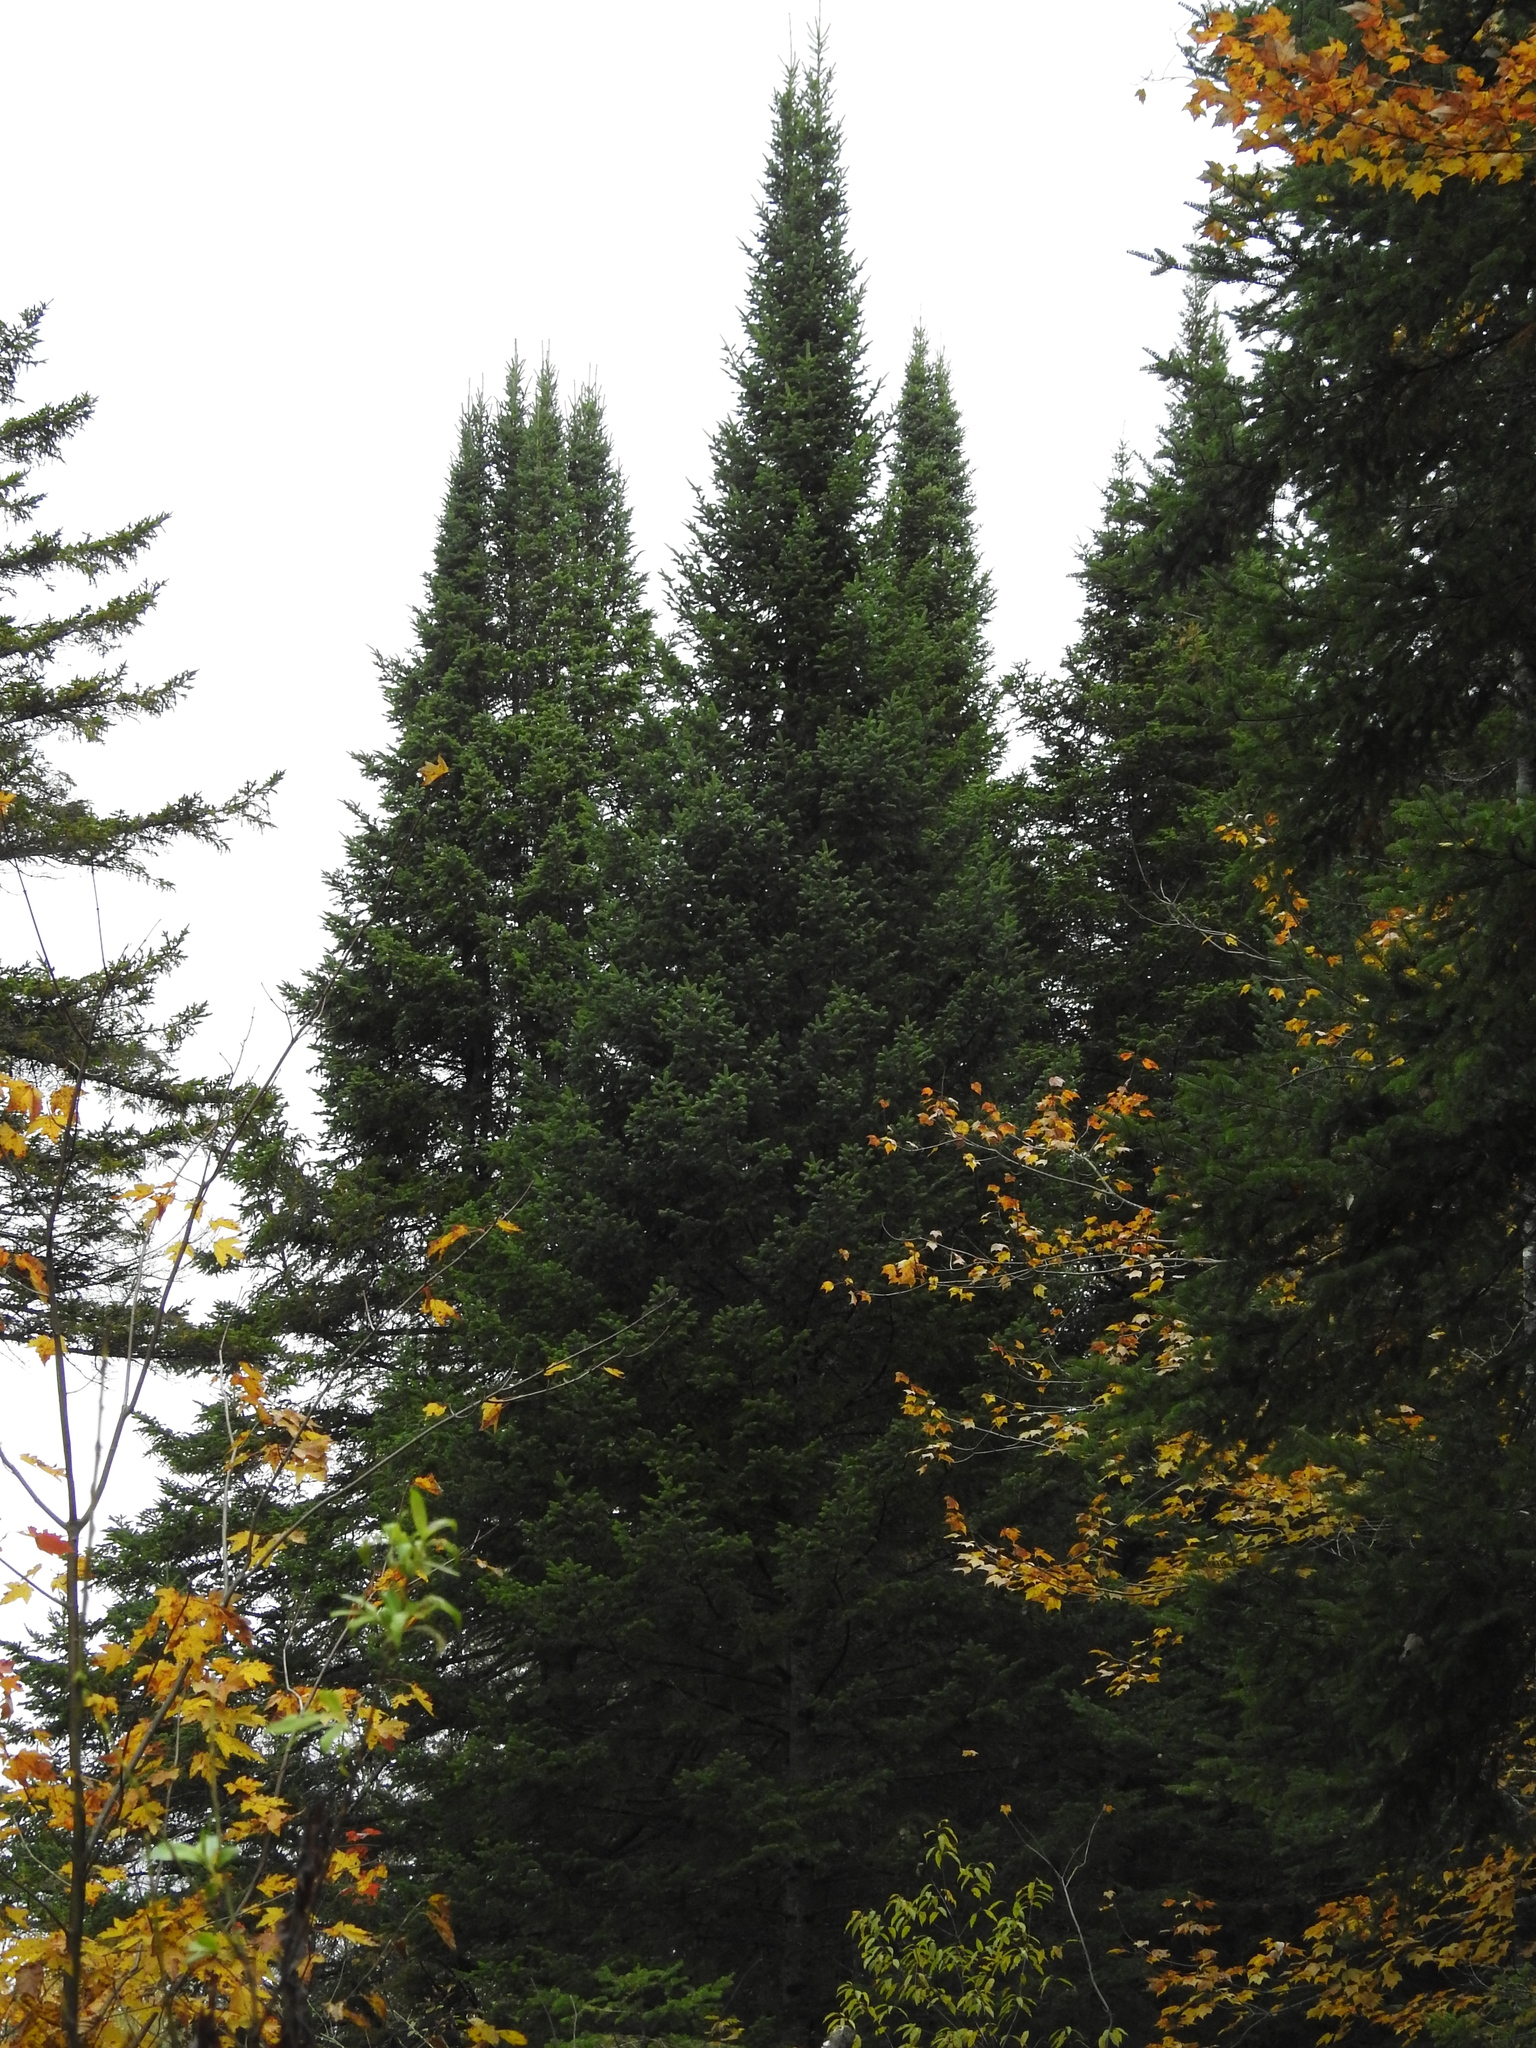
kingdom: Plantae
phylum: Tracheophyta
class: Pinopsida
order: Pinales
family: Pinaceae
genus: Abies
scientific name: Abies balsamea
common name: Balsam fir
